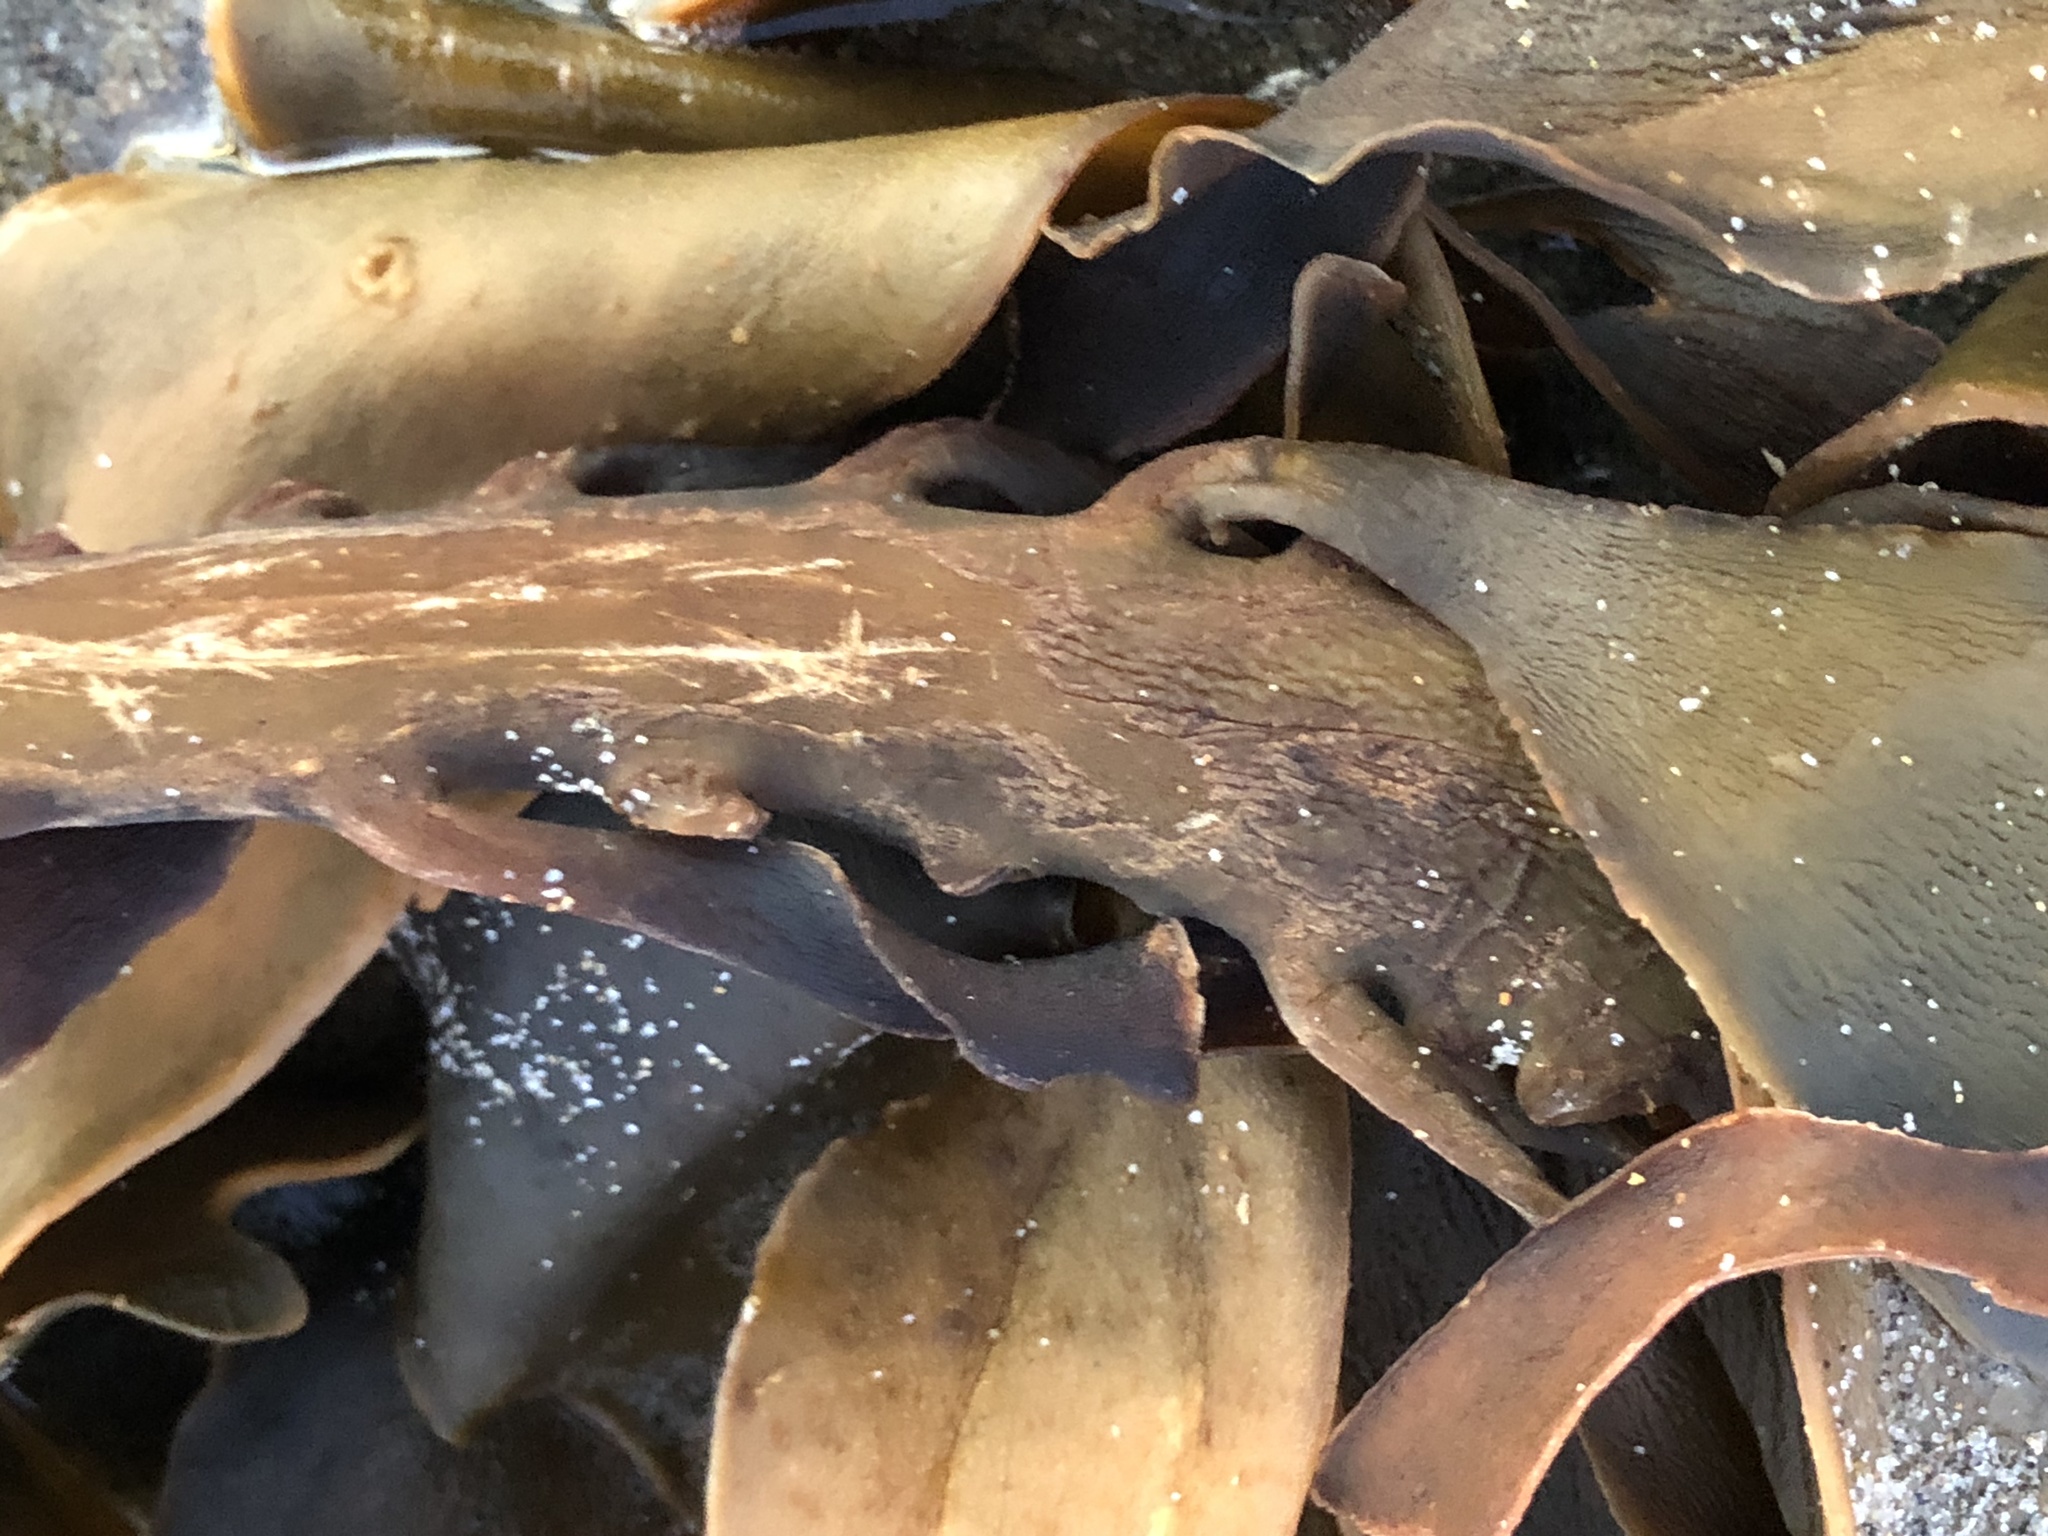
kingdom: Chromista
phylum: Ochrophyta
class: Phaeophyceae
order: Laminariales
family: Alariaceae
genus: Pterygophora
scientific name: Pterygophora californica
